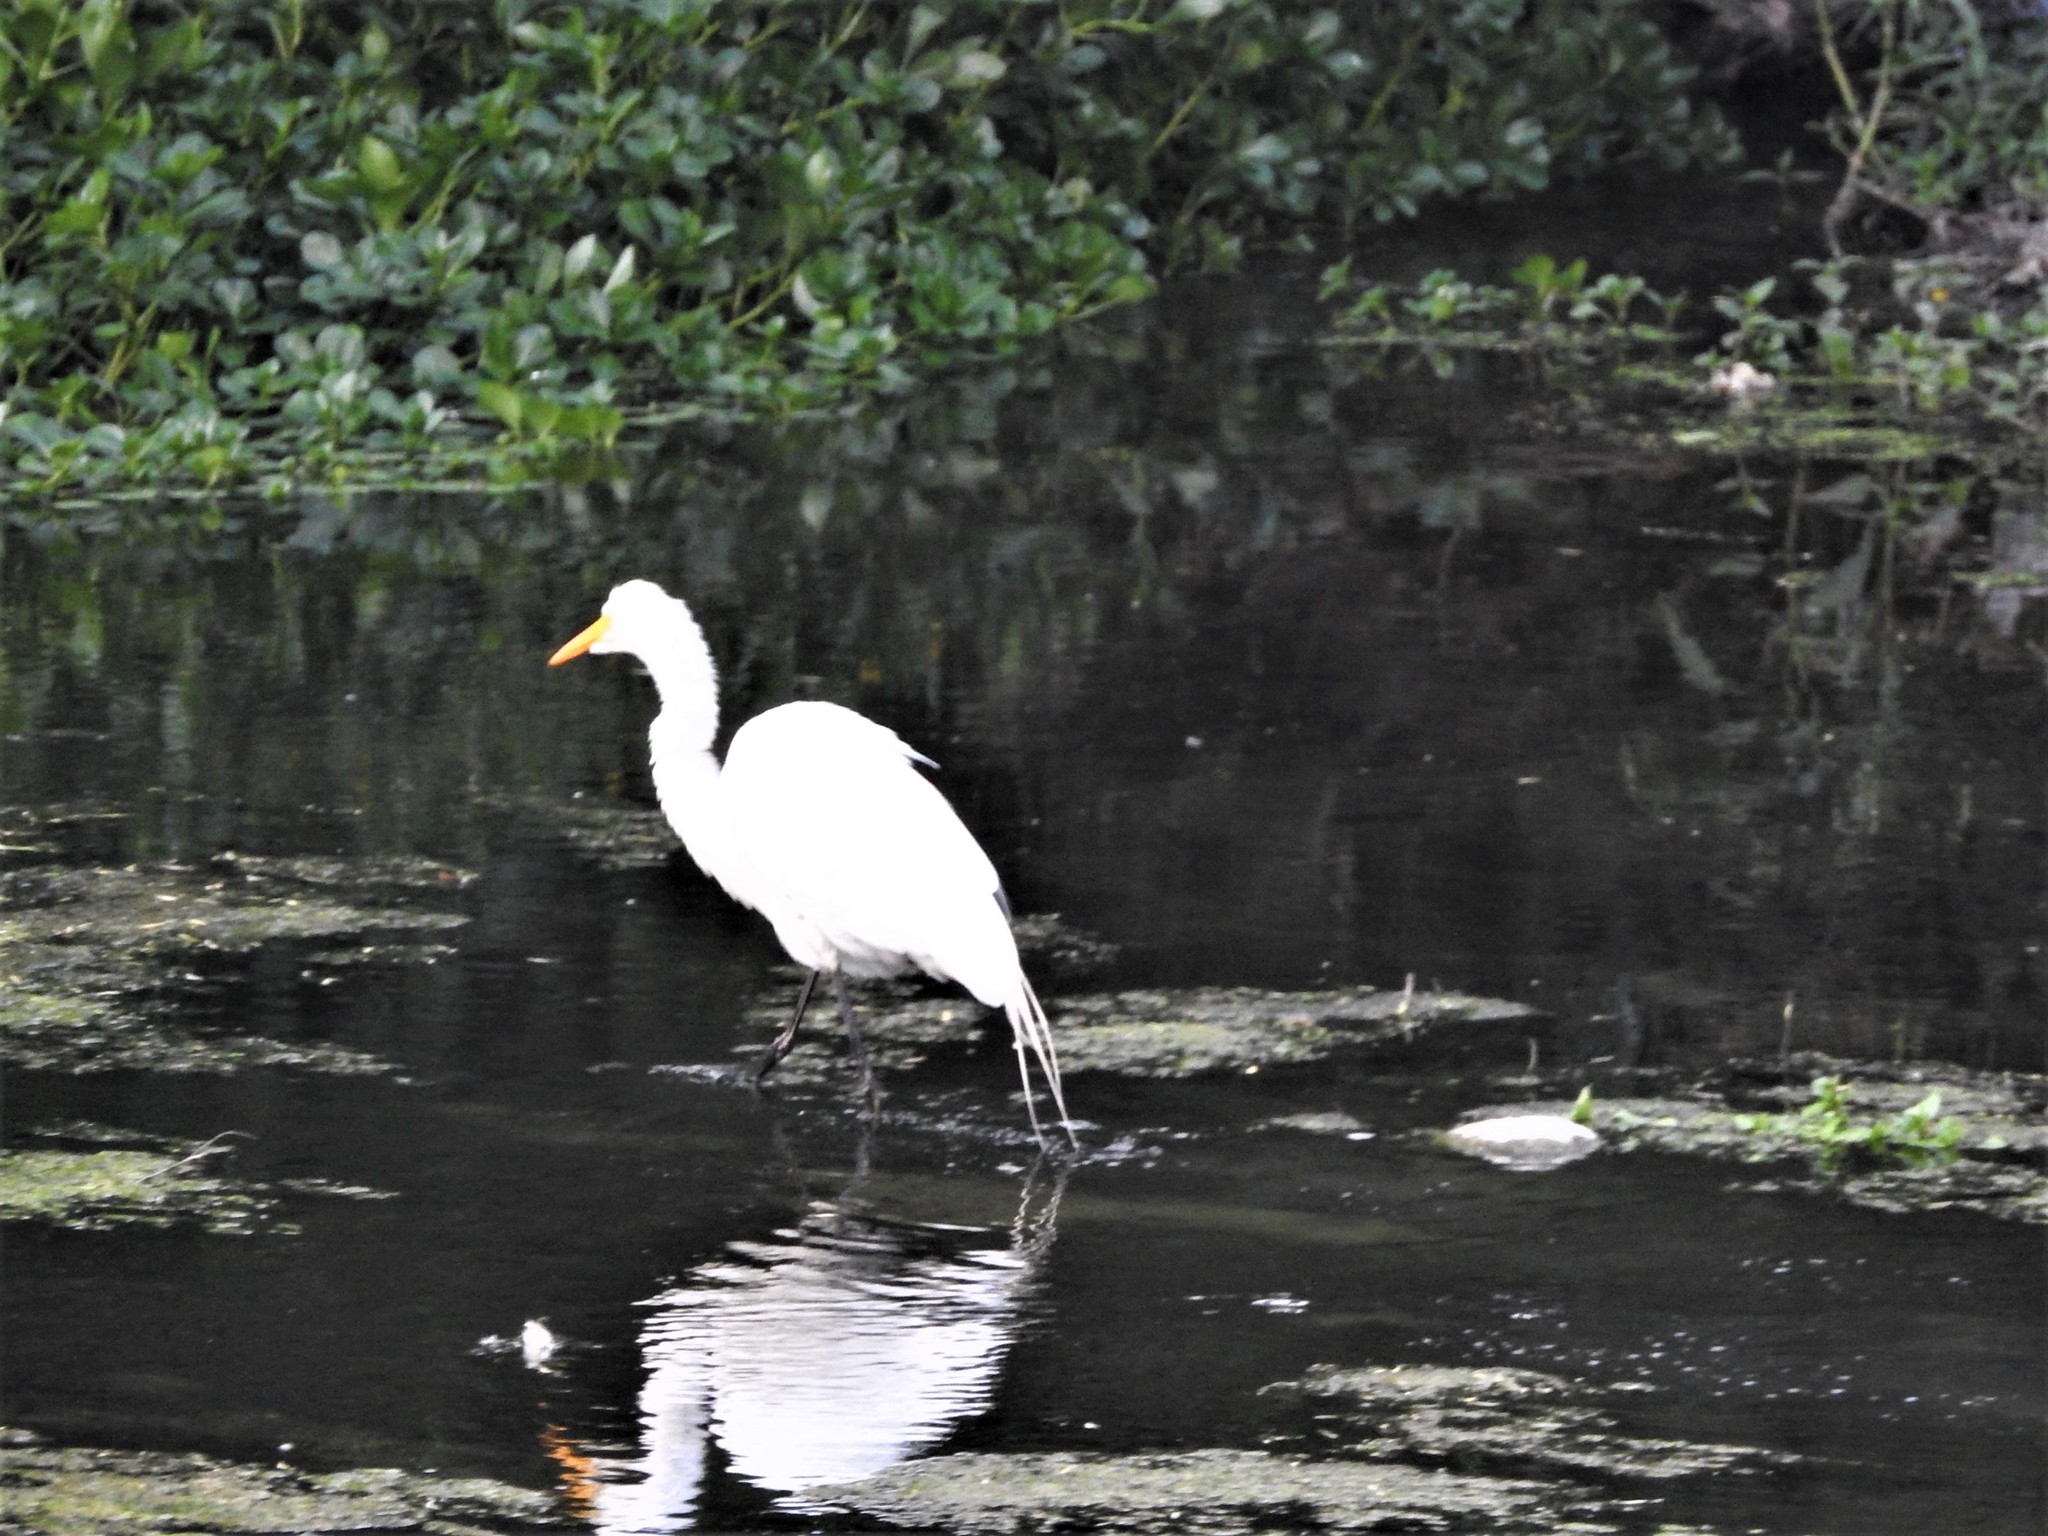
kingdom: Animalia
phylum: Chordata
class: Aves
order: Pelecaniformes
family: Ardeidae
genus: Ardea
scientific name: Ardea alba
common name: Great egret
